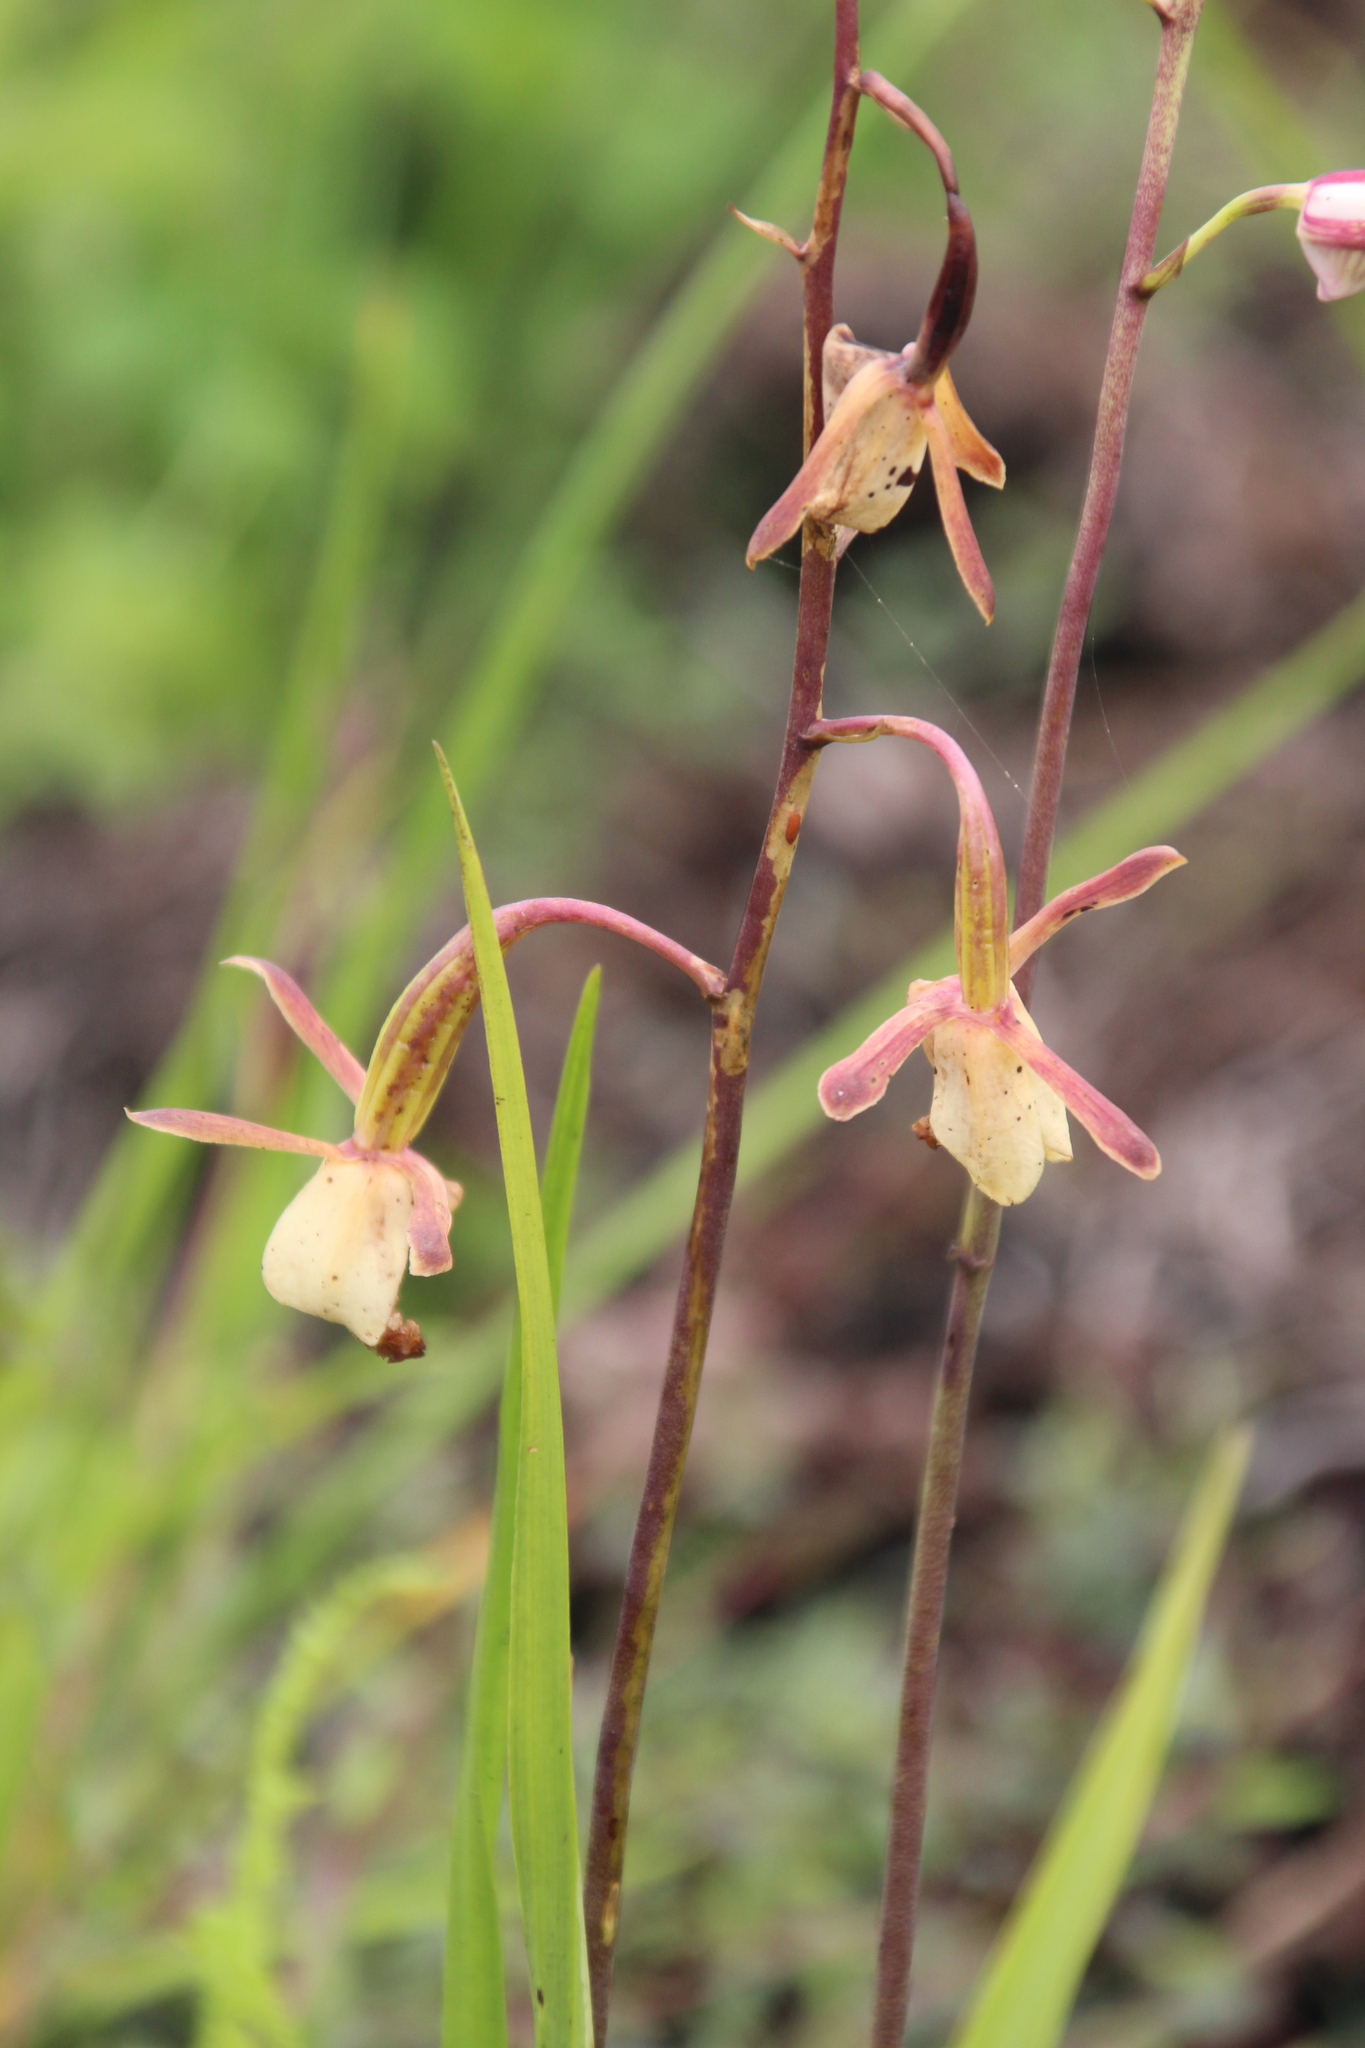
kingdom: Plantae
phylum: Tracheophyta
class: Liliopsida
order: Asparagales
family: Orchidaceae
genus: Eulophia
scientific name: Eulophia caricifolia
